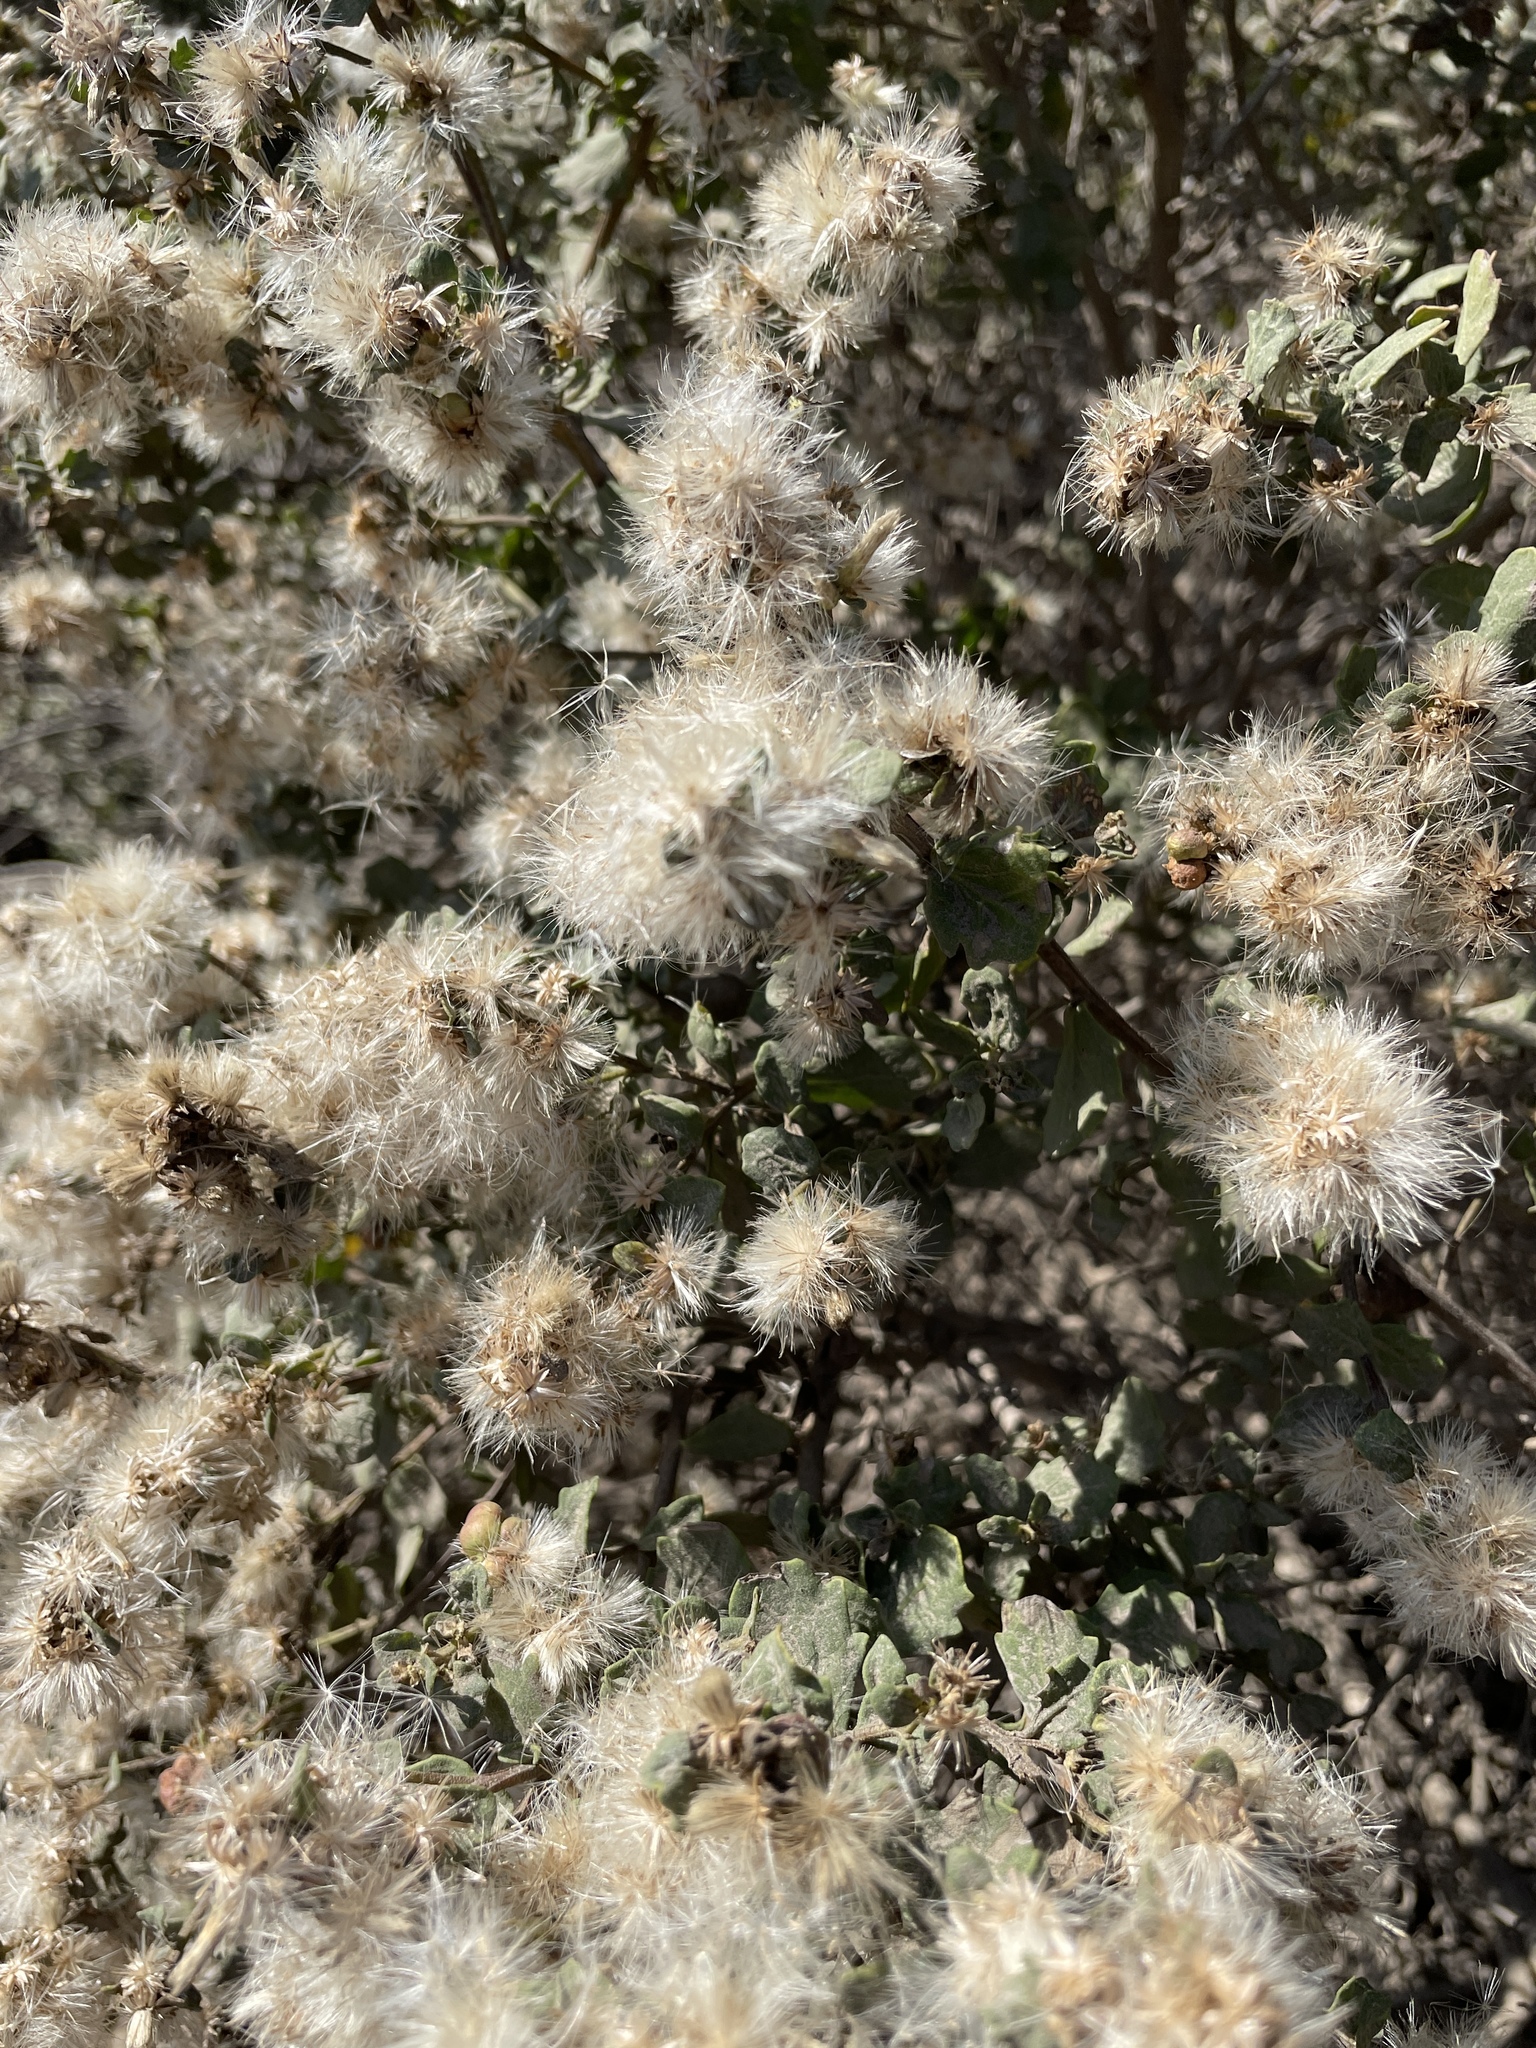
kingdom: Plantae
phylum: Tracheophyta
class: Magnoliopsida
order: Asterales
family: Asteraceae
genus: Baccharis
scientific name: Baccharis pilularis
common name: Coyotebrush
